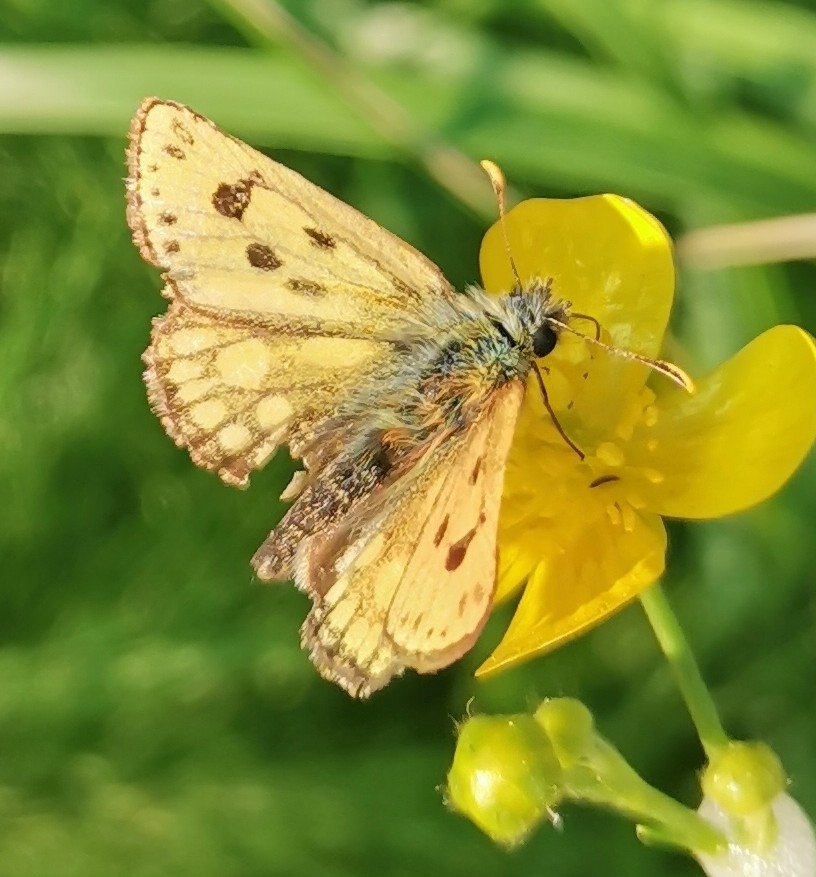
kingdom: Animalia
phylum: Arthropoda
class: Insecta
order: Lepidoptera
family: Hesperiidae
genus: Carterocephalus
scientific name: Carterocephalus silvicola
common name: Northern chequered skipper
